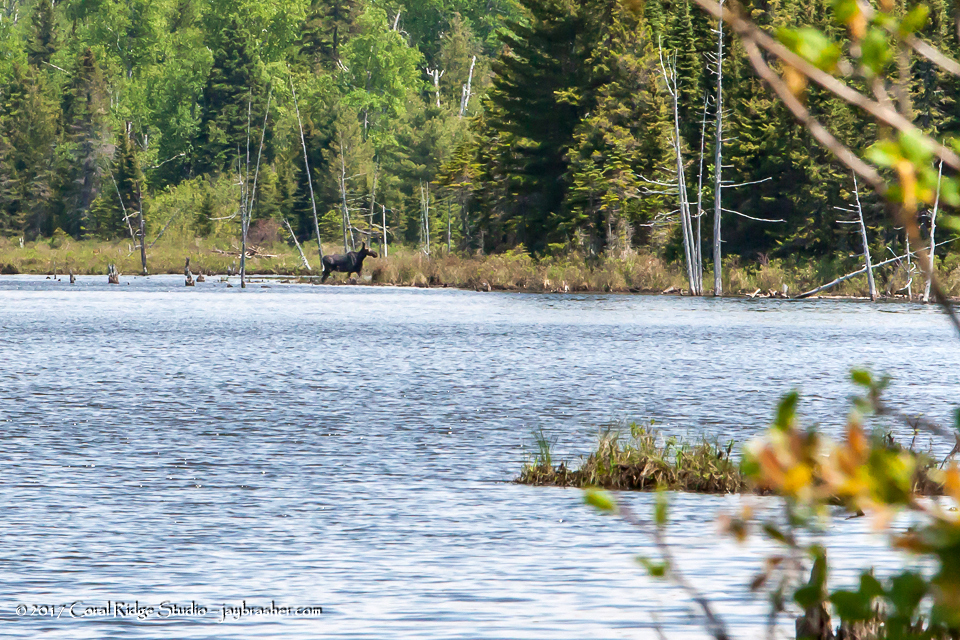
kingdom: Animalia
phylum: Chordata
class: Mammalia
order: Artiodactyla
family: Cervidae
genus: Alces
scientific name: Alces alces
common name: Moose
